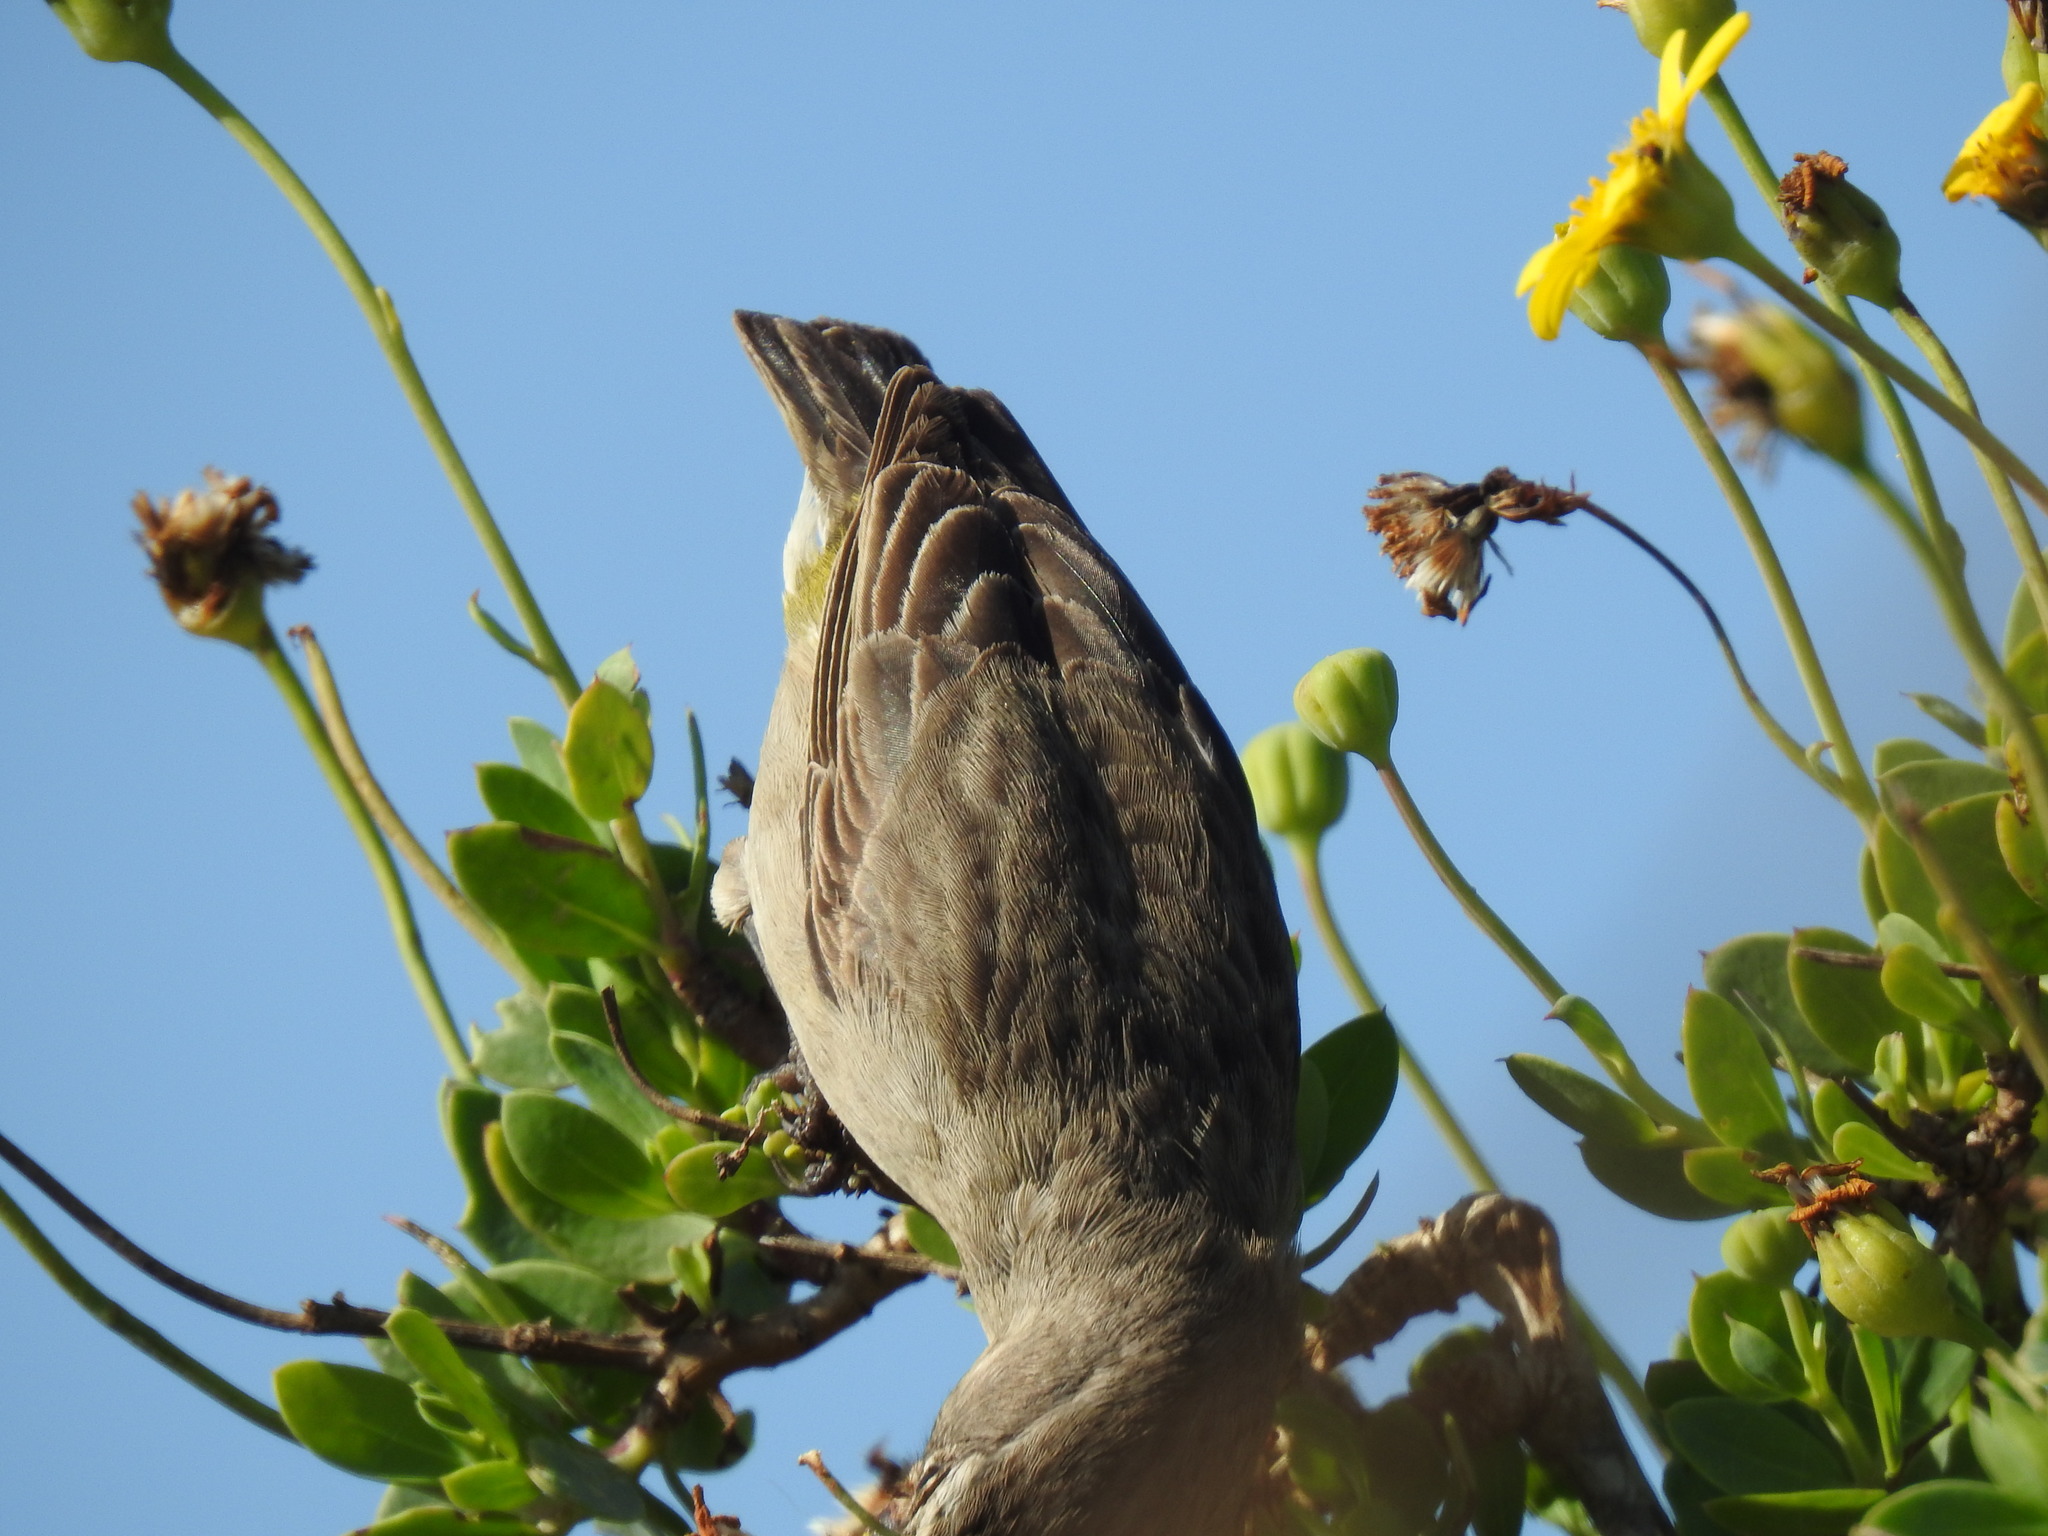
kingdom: Animalia
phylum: Chordata
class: Aves
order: Passeriformes
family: Fringillidae
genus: Crithagra
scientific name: Crithagra albogularis
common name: White-throated canary
